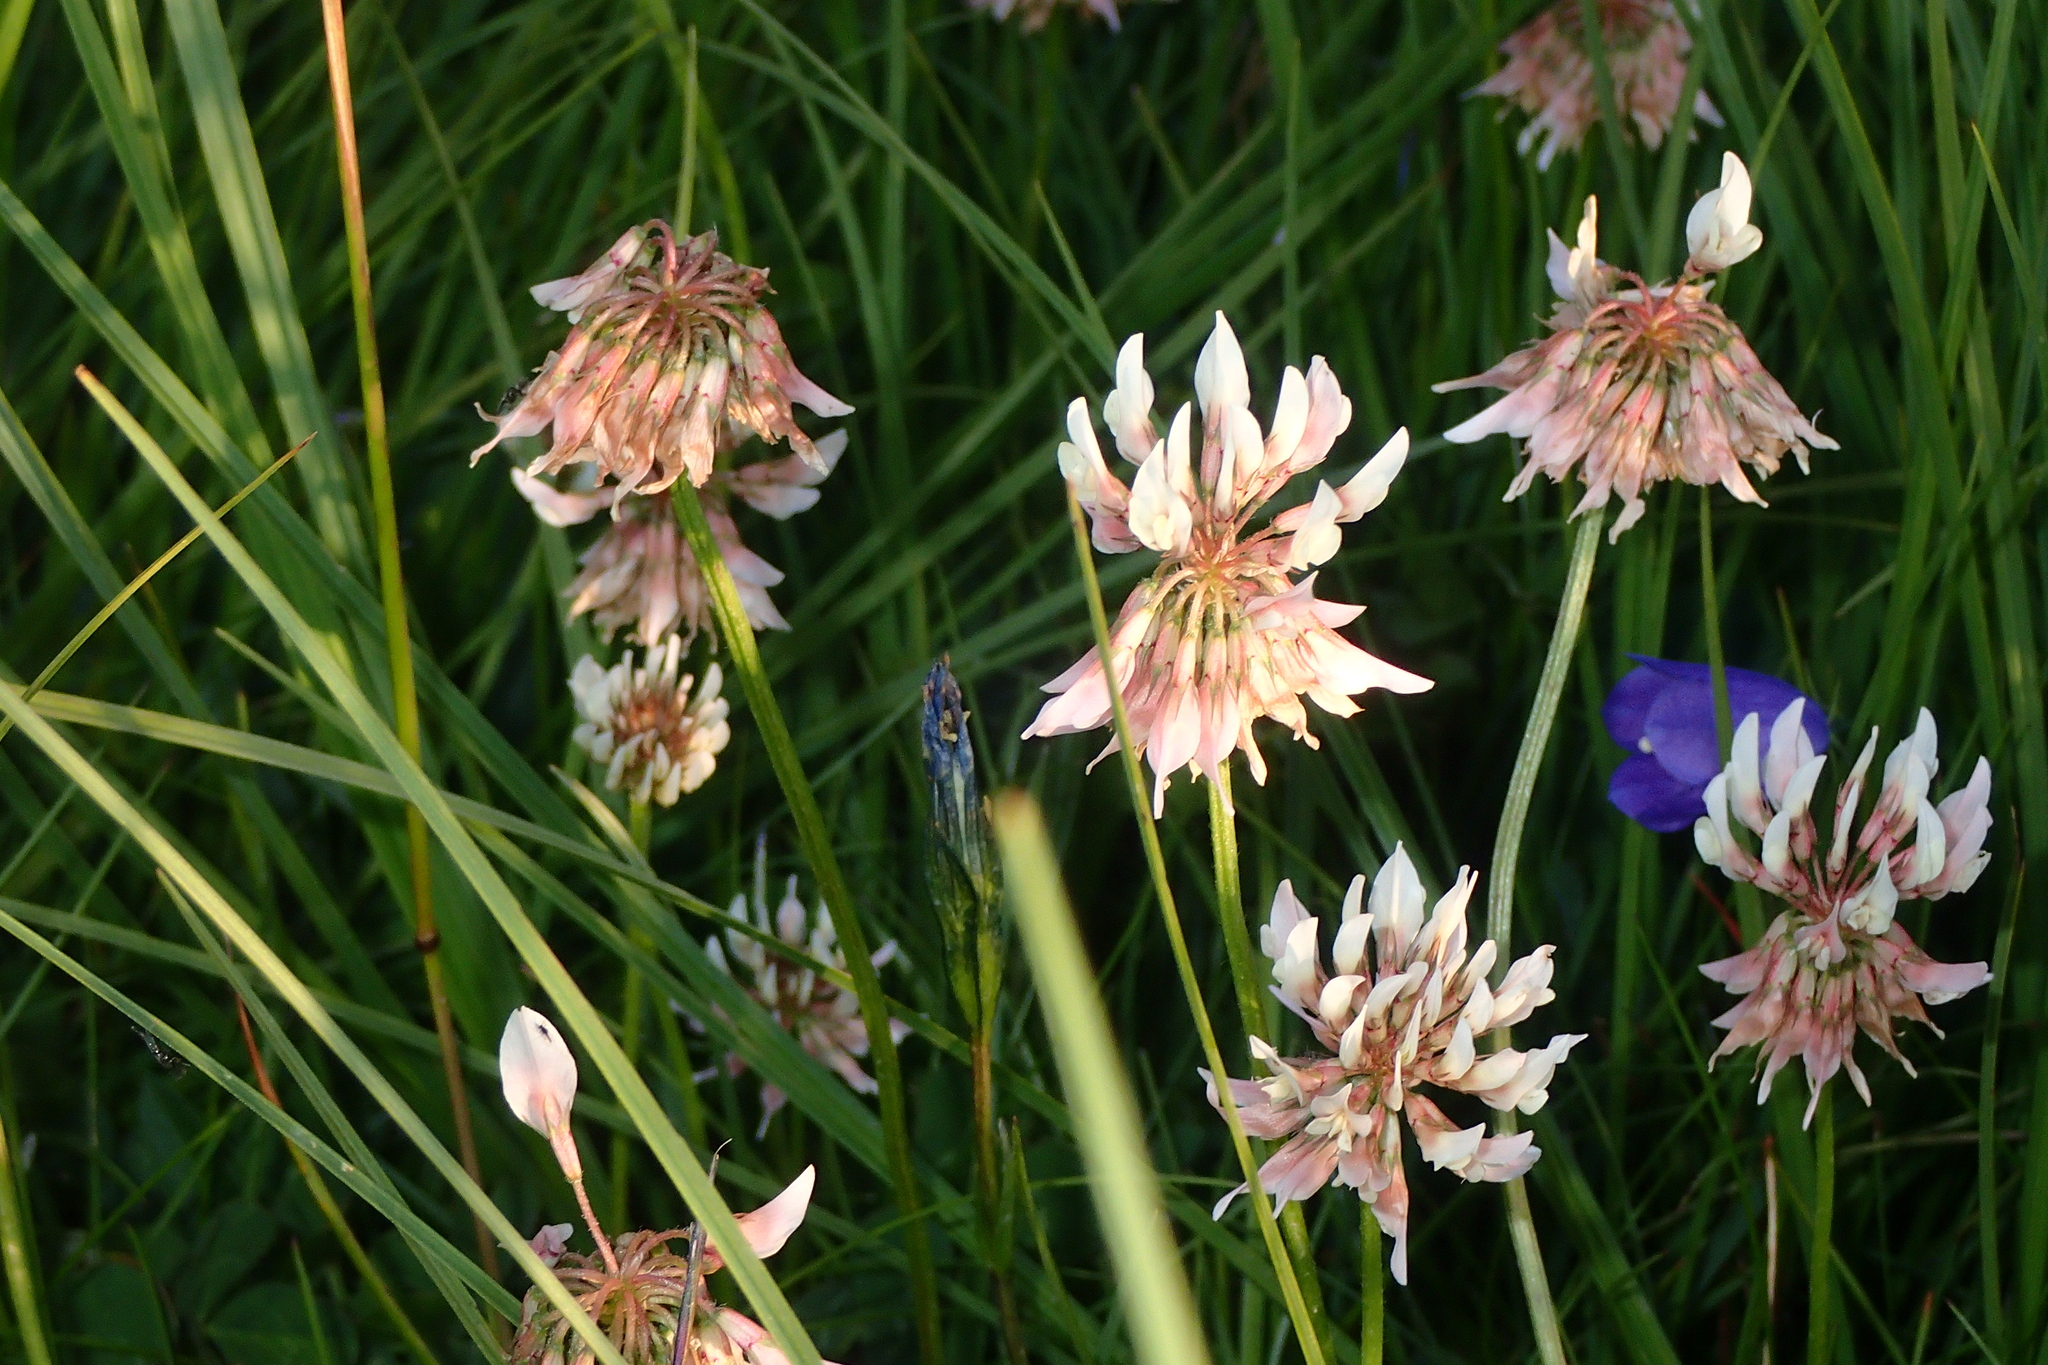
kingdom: Plantae
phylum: Tracheophyta
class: Magnoliopsida
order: Fabales
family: Fabaceae
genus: Trifolium
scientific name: Trifolium repens
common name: White clover
